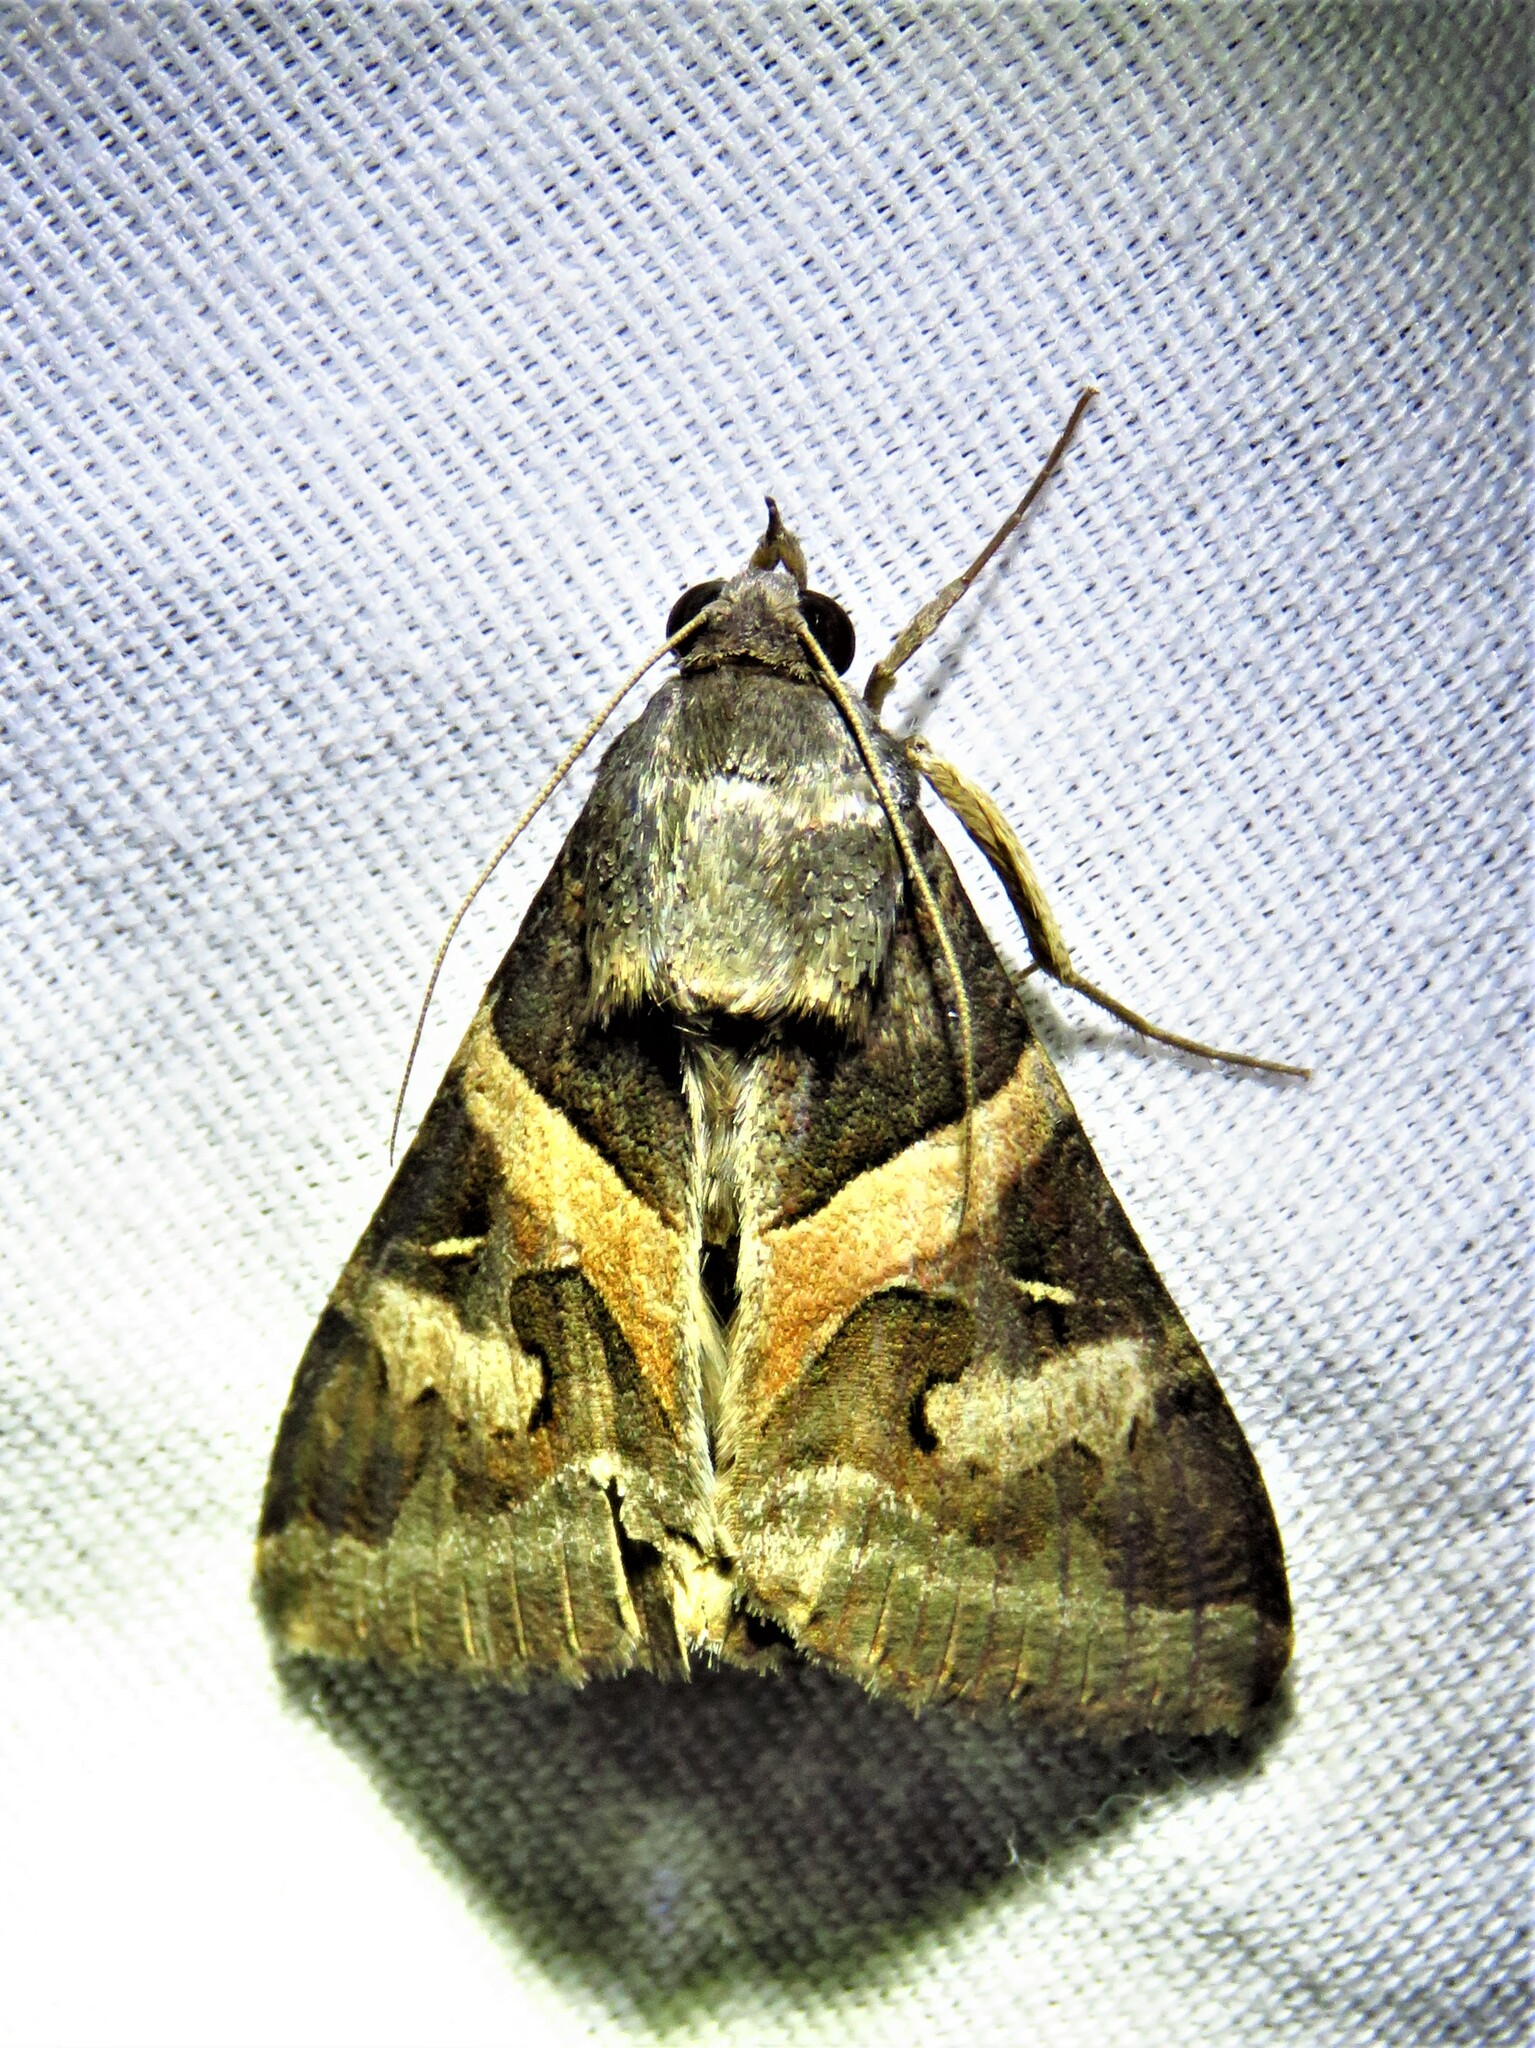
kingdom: Animalia
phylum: Arthropoda
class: Insecta
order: Lepidoptera
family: Erebidae
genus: Melipotis
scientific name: Melipotis indomita
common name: Moth
